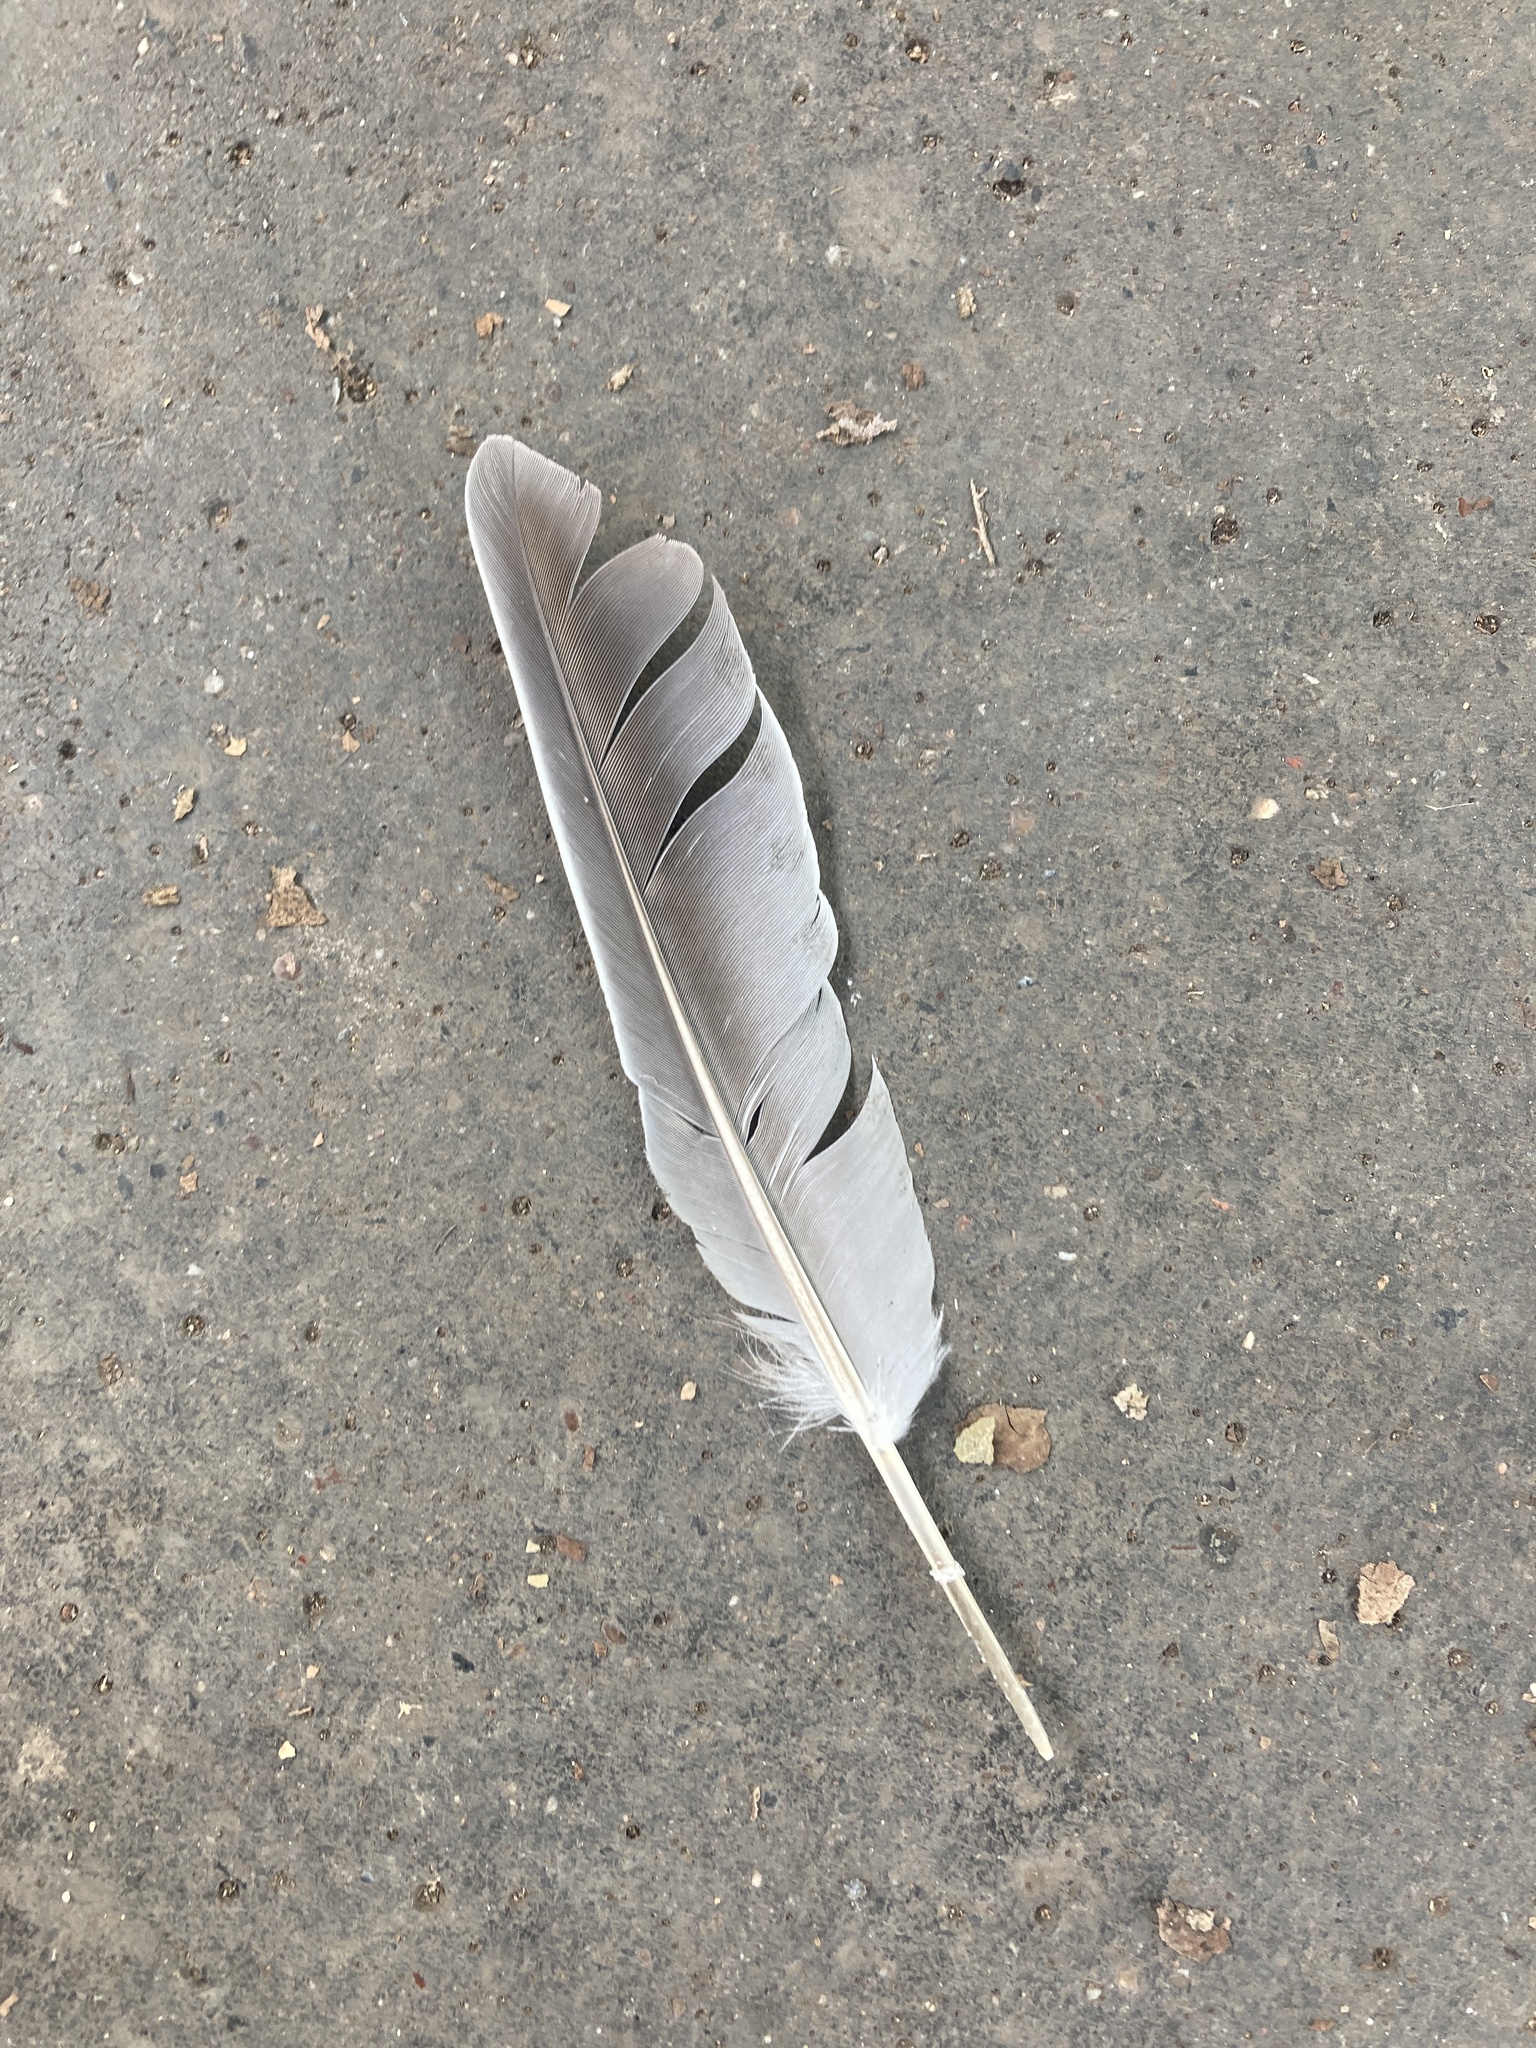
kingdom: Animalia
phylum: Chordata
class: Aves
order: Columbiformes
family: Columbidae
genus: Columba
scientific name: Columba palumbus
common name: Common wood pigeon
